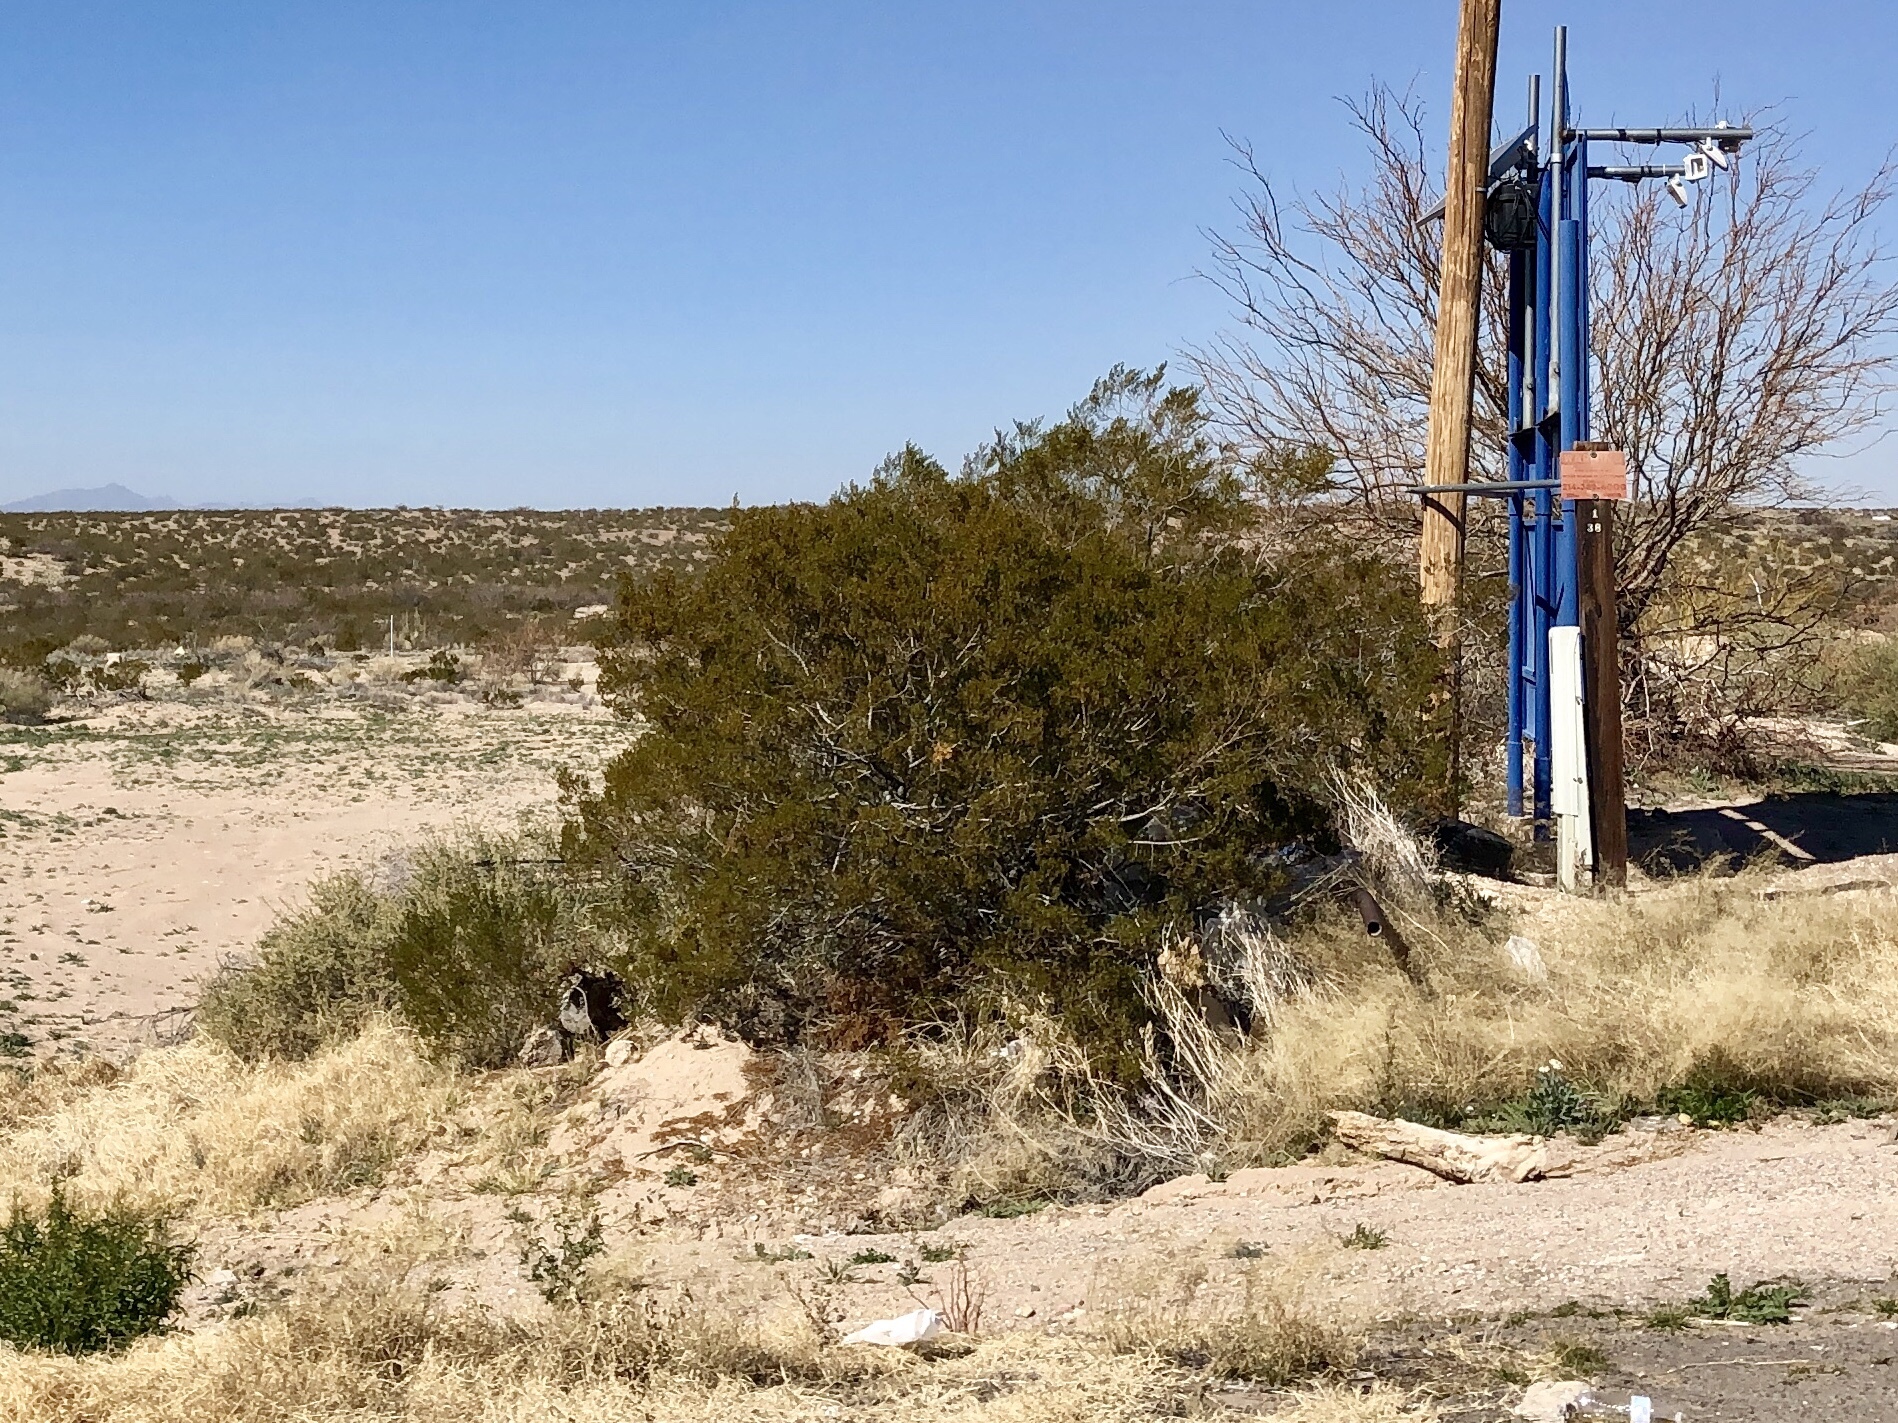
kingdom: Plantae
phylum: Tracheophyta
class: Magnoliopsida
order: Zygophyllales
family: Zygophyllaceae
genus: Larrea
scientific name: Larrea tridentata
